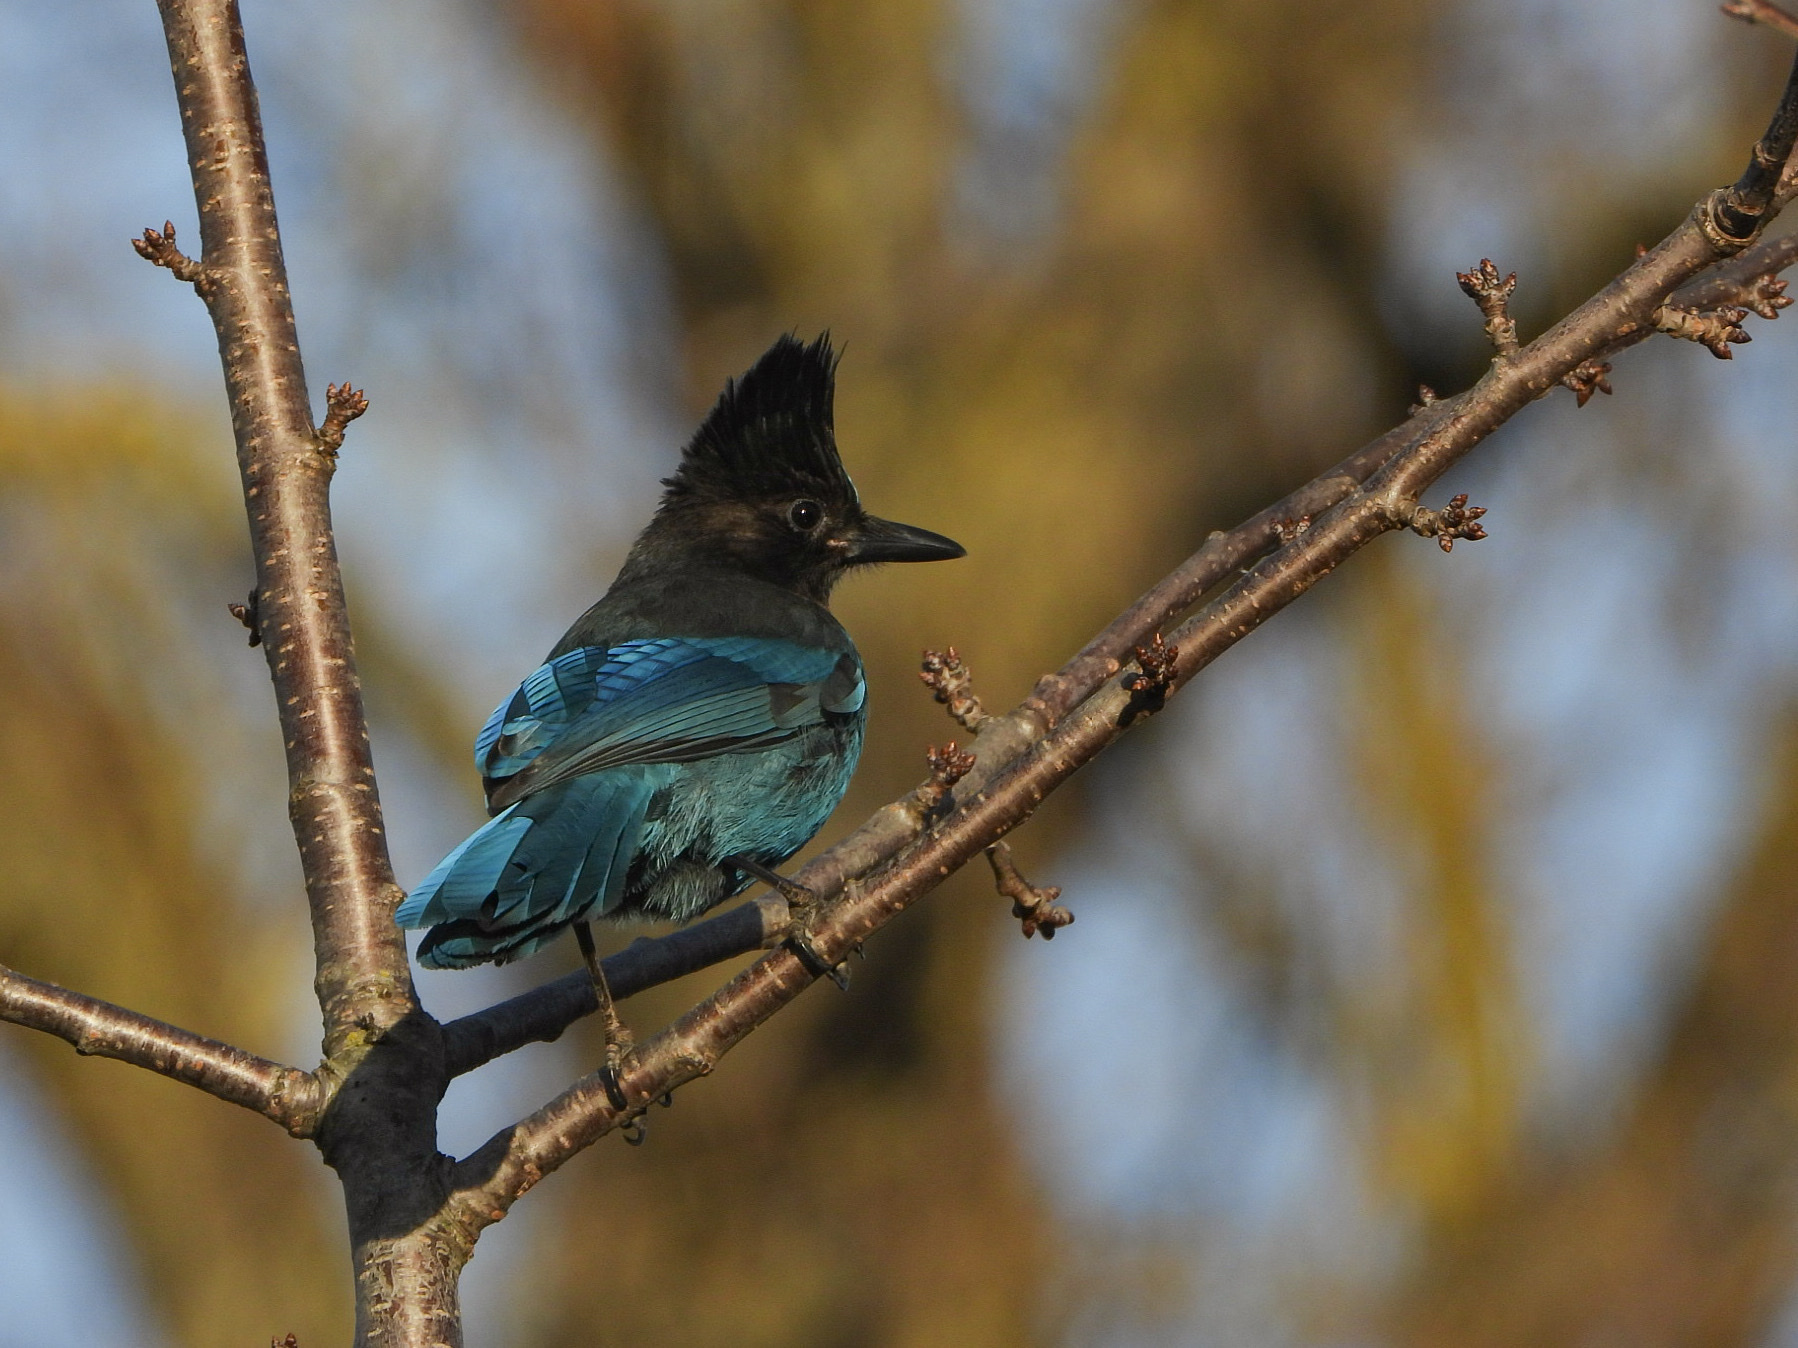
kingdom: Animalia
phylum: Chordata
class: Aves
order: Passeriformes
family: Corvidae
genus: Cyanocitta
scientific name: Cyanocitta stelleri
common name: Steller's jay
